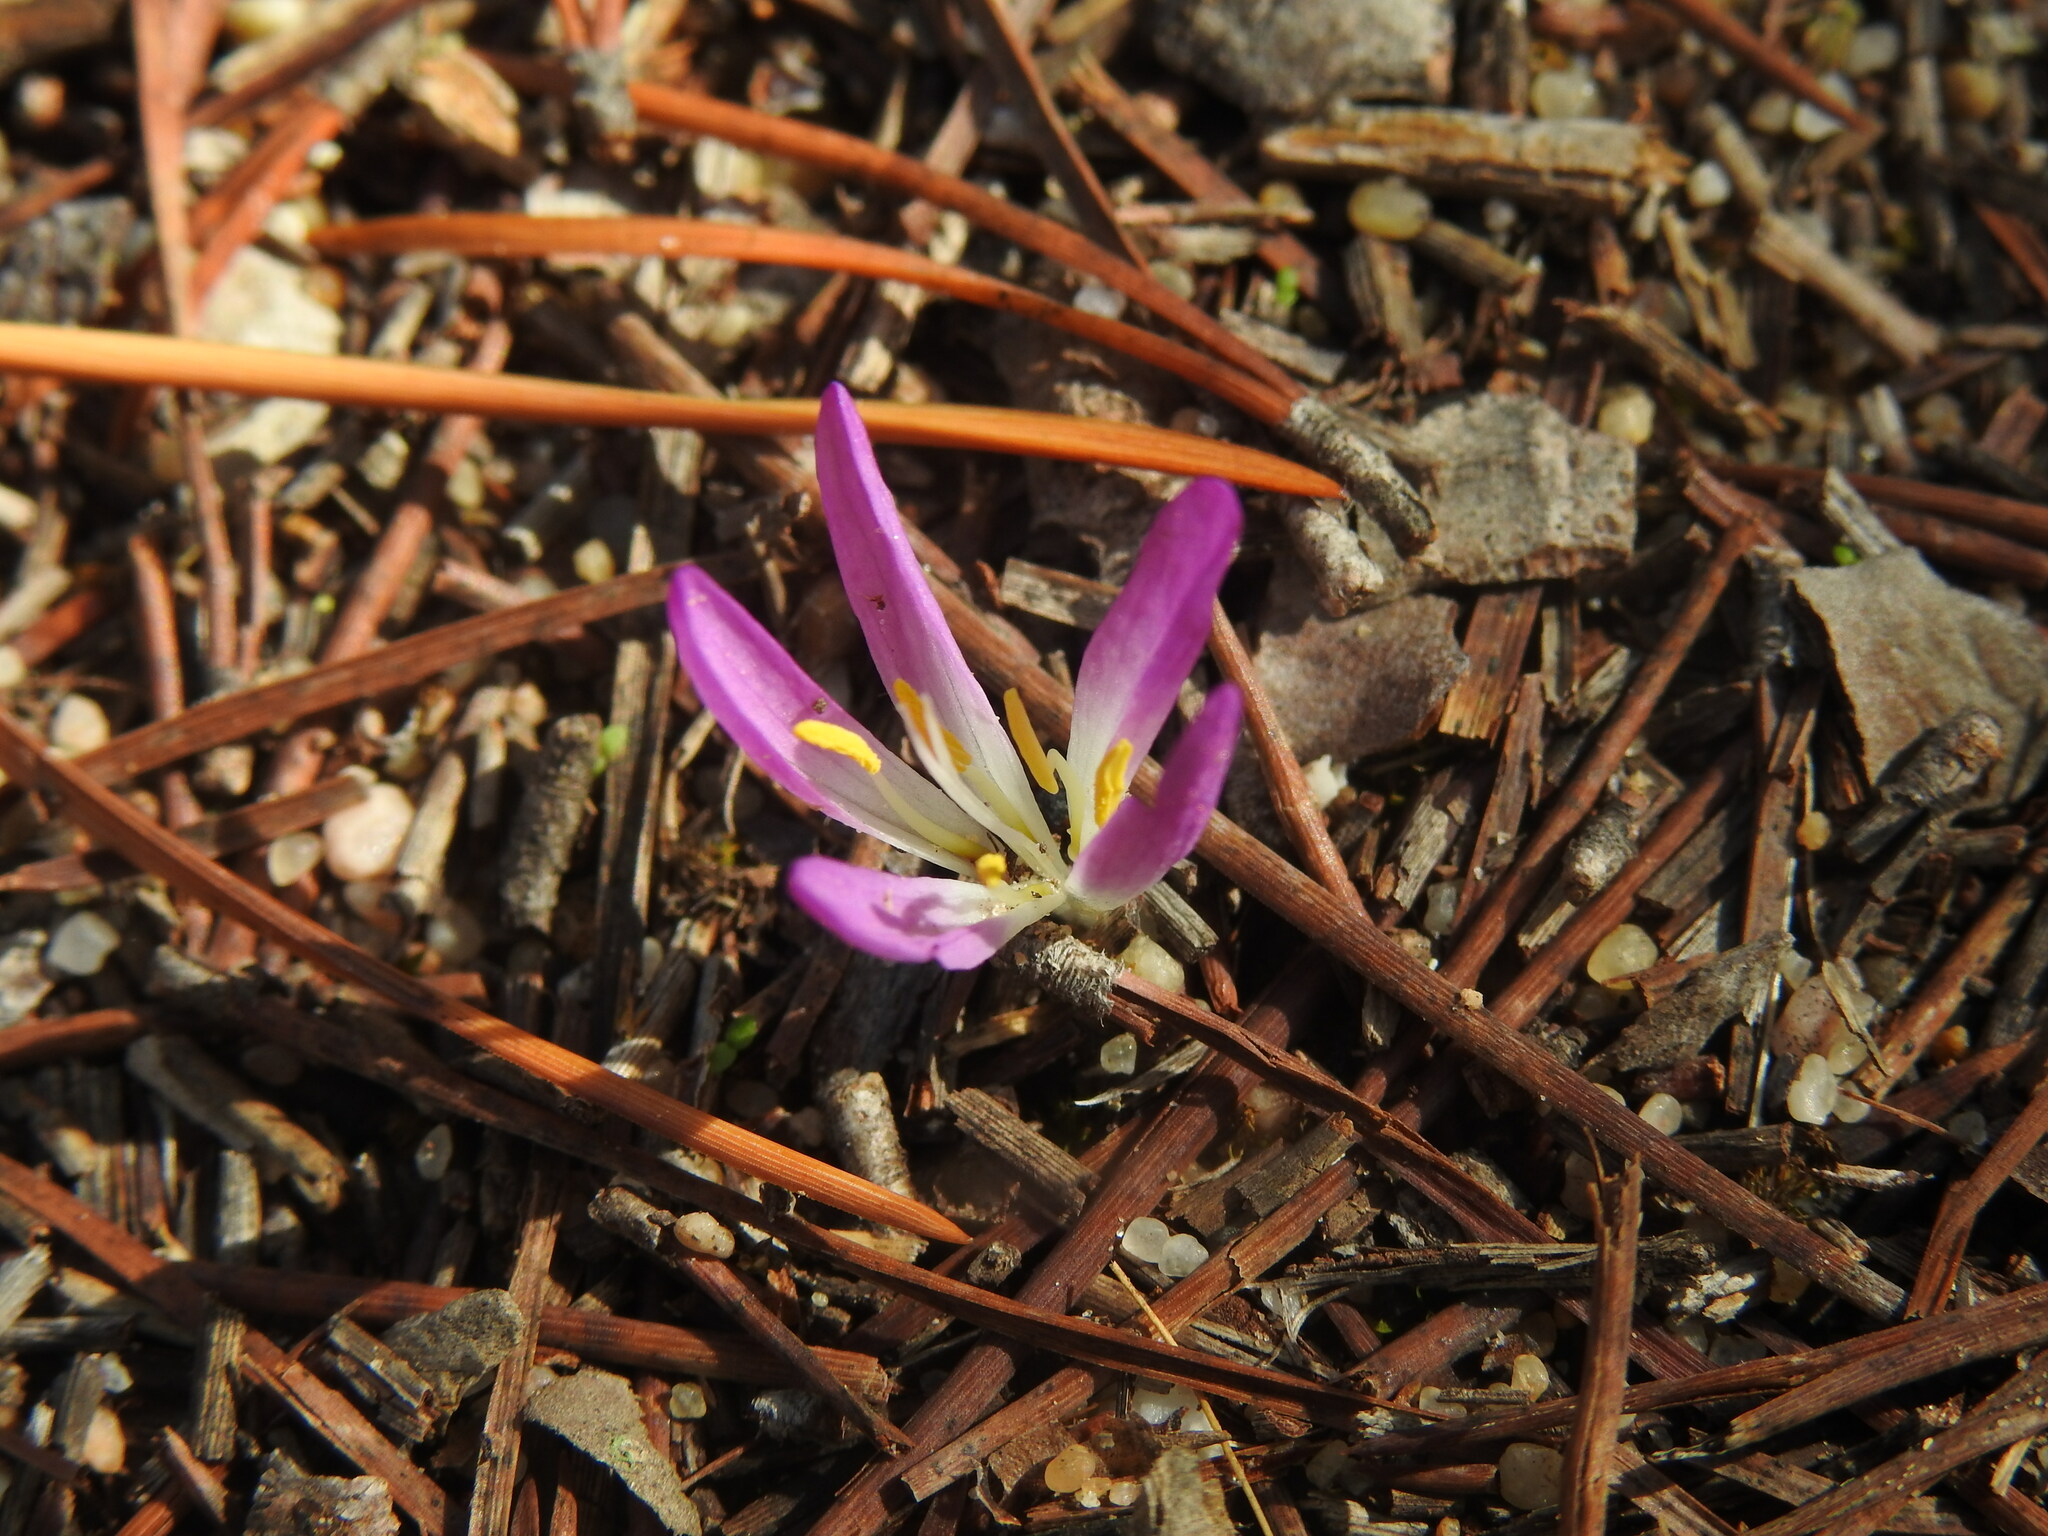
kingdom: Plantae
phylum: Tracheophyta
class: Liliopsida
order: Liliales
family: Colchicaceae
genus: Colchicum
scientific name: Colchicum filifolium
